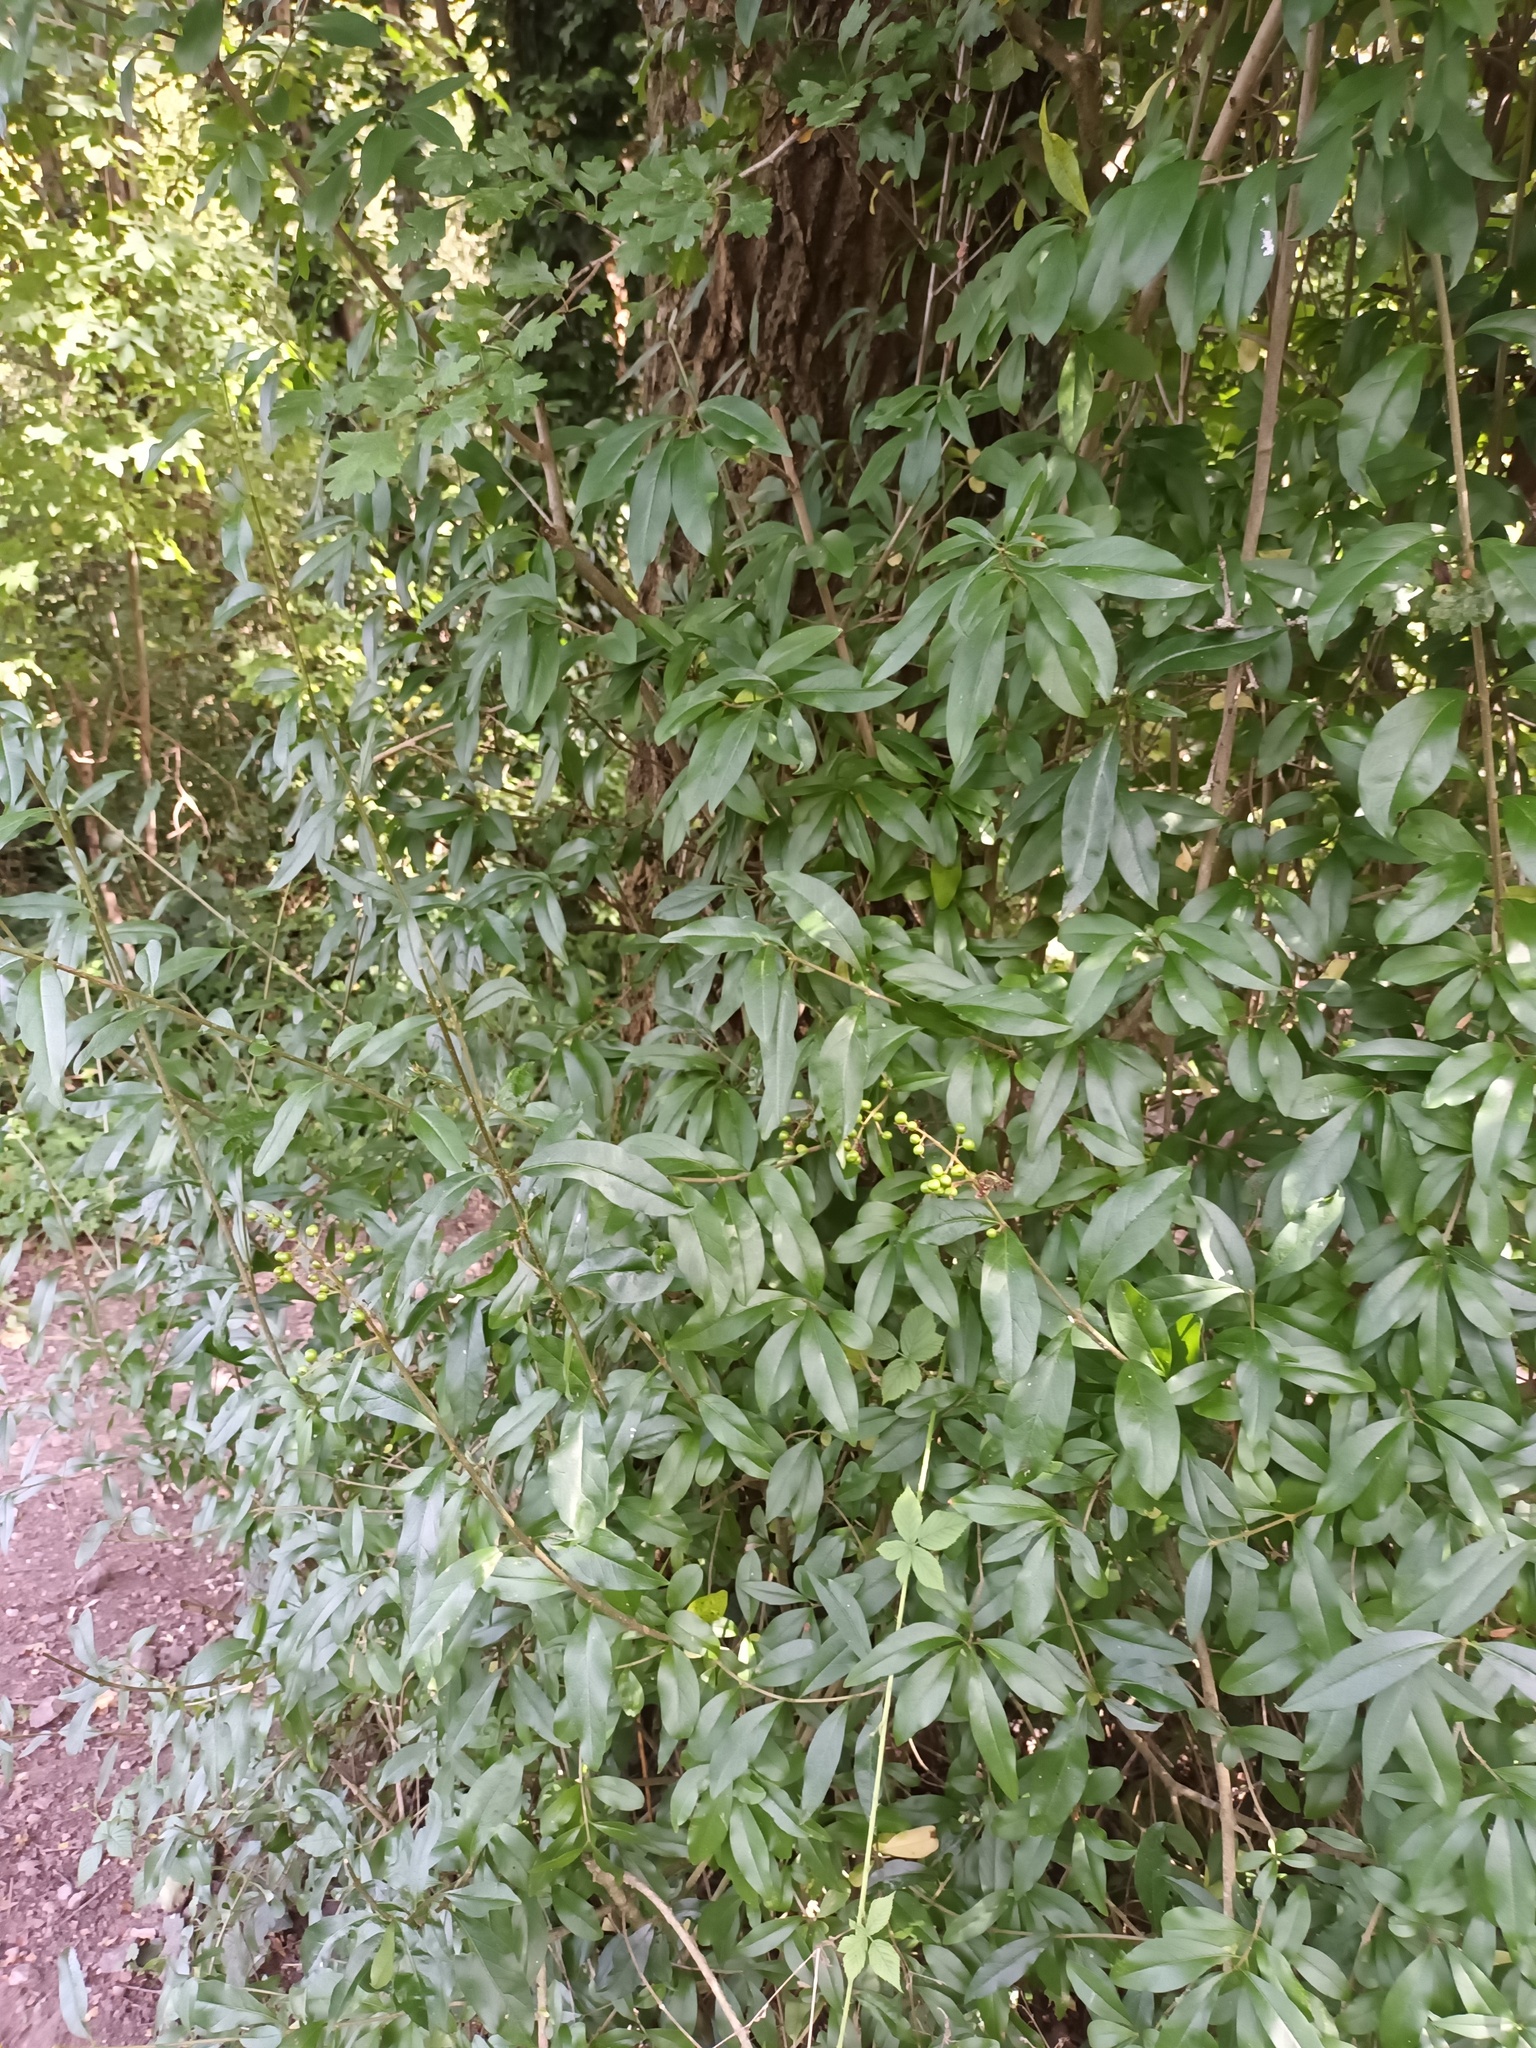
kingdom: Plantae
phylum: Tracheophyta
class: Magnoliopsida
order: Lamiales
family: Oleaceae
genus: Ligustrum
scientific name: Ligustrum vulgare
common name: Wild privet
